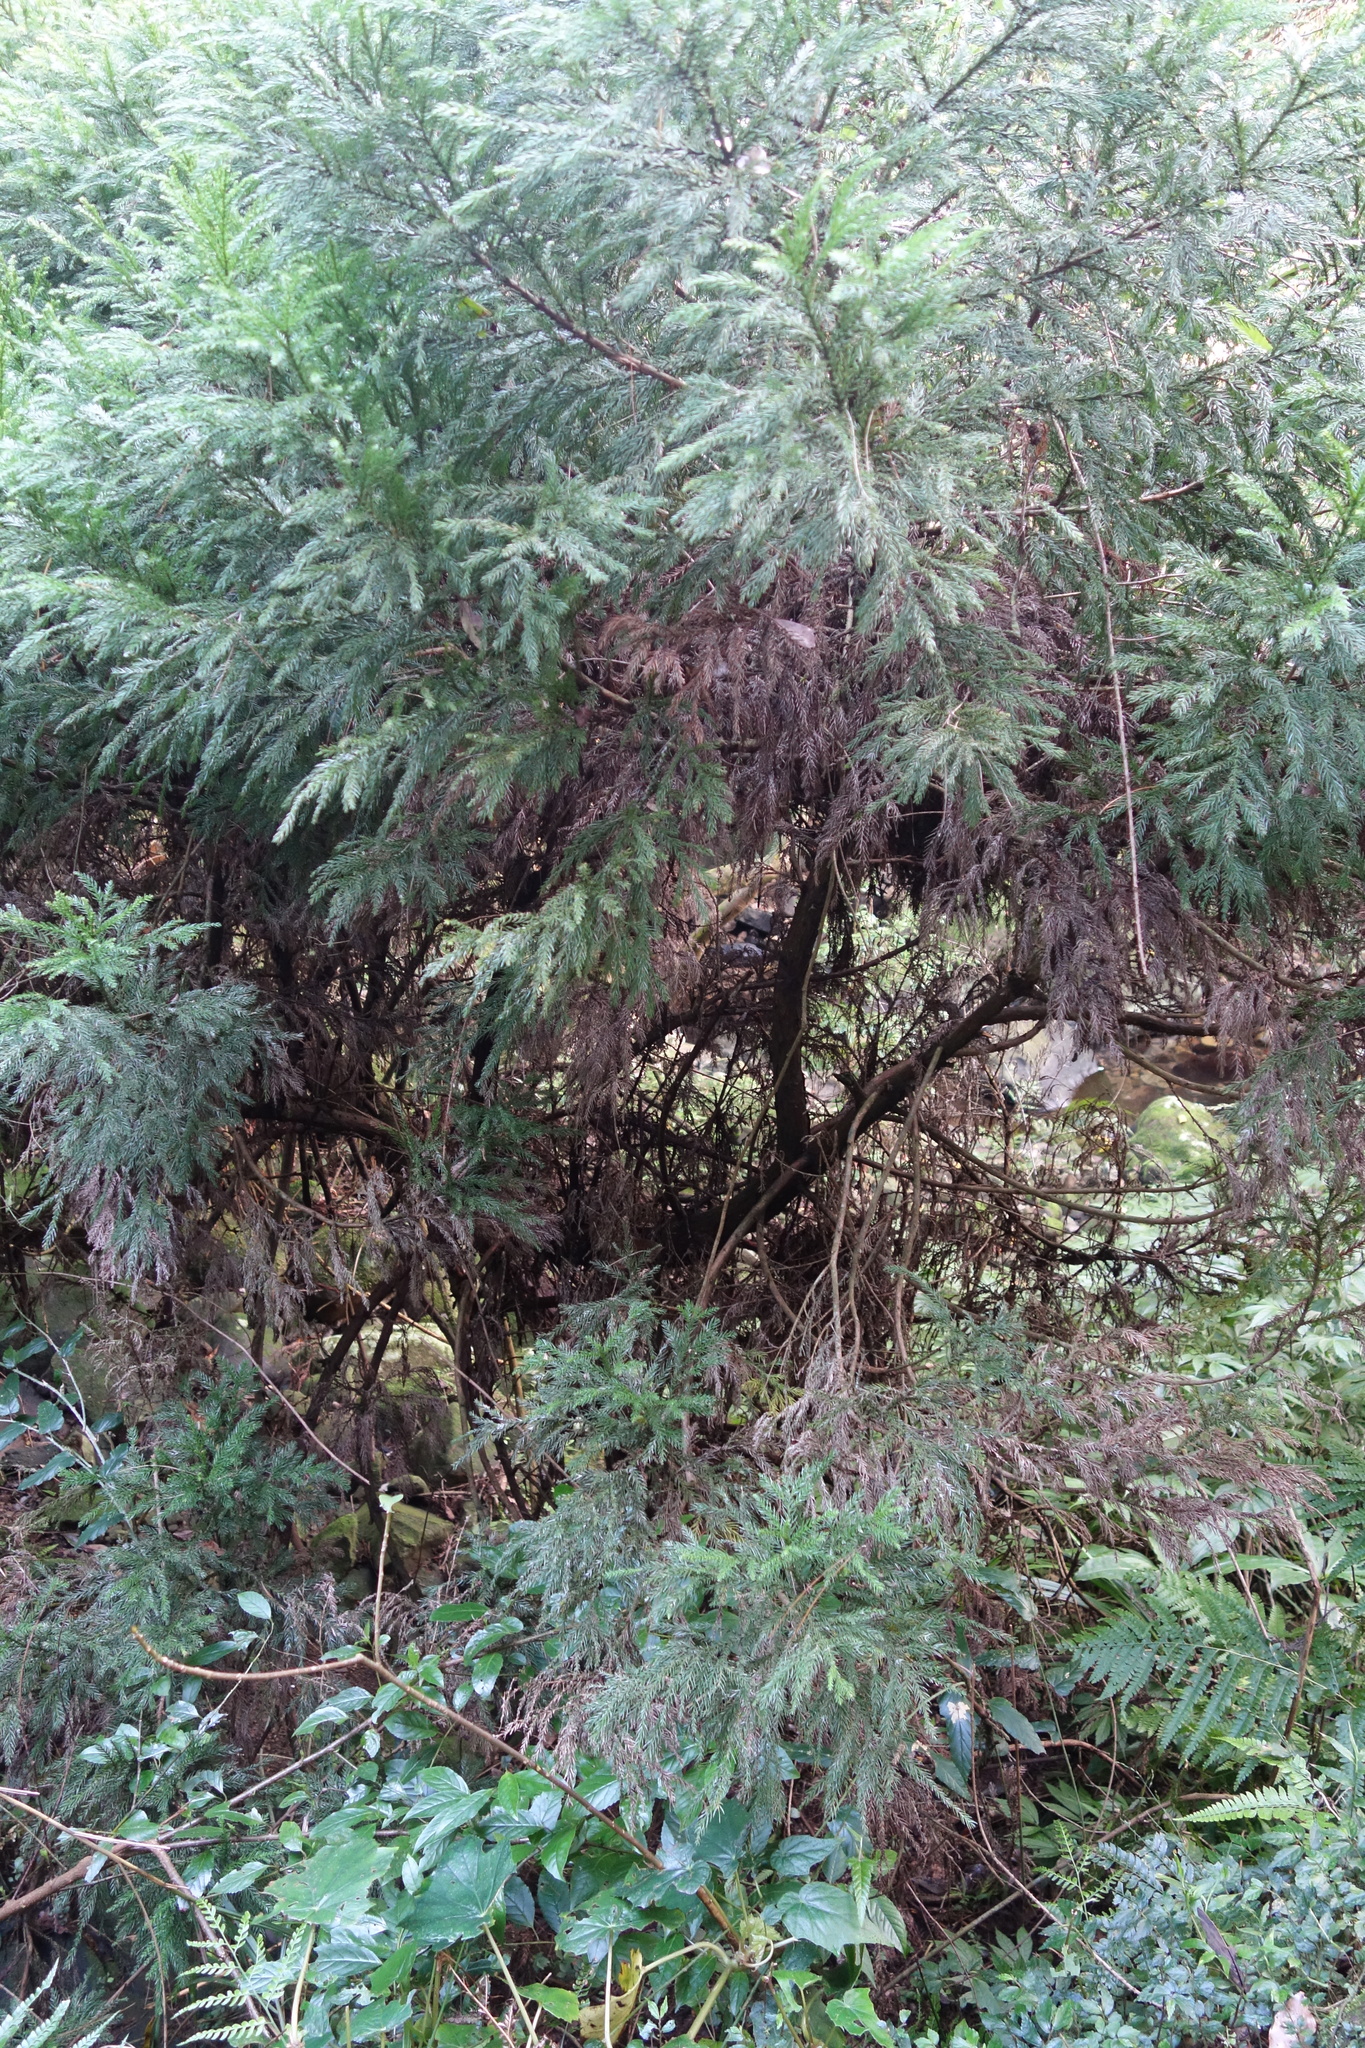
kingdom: Plantae
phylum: Tracheophyta
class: Pinopsida
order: Pinales
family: Cupressaceae
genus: Cryptomeria
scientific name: Cryptomeria japonica
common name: Japanese cedar
